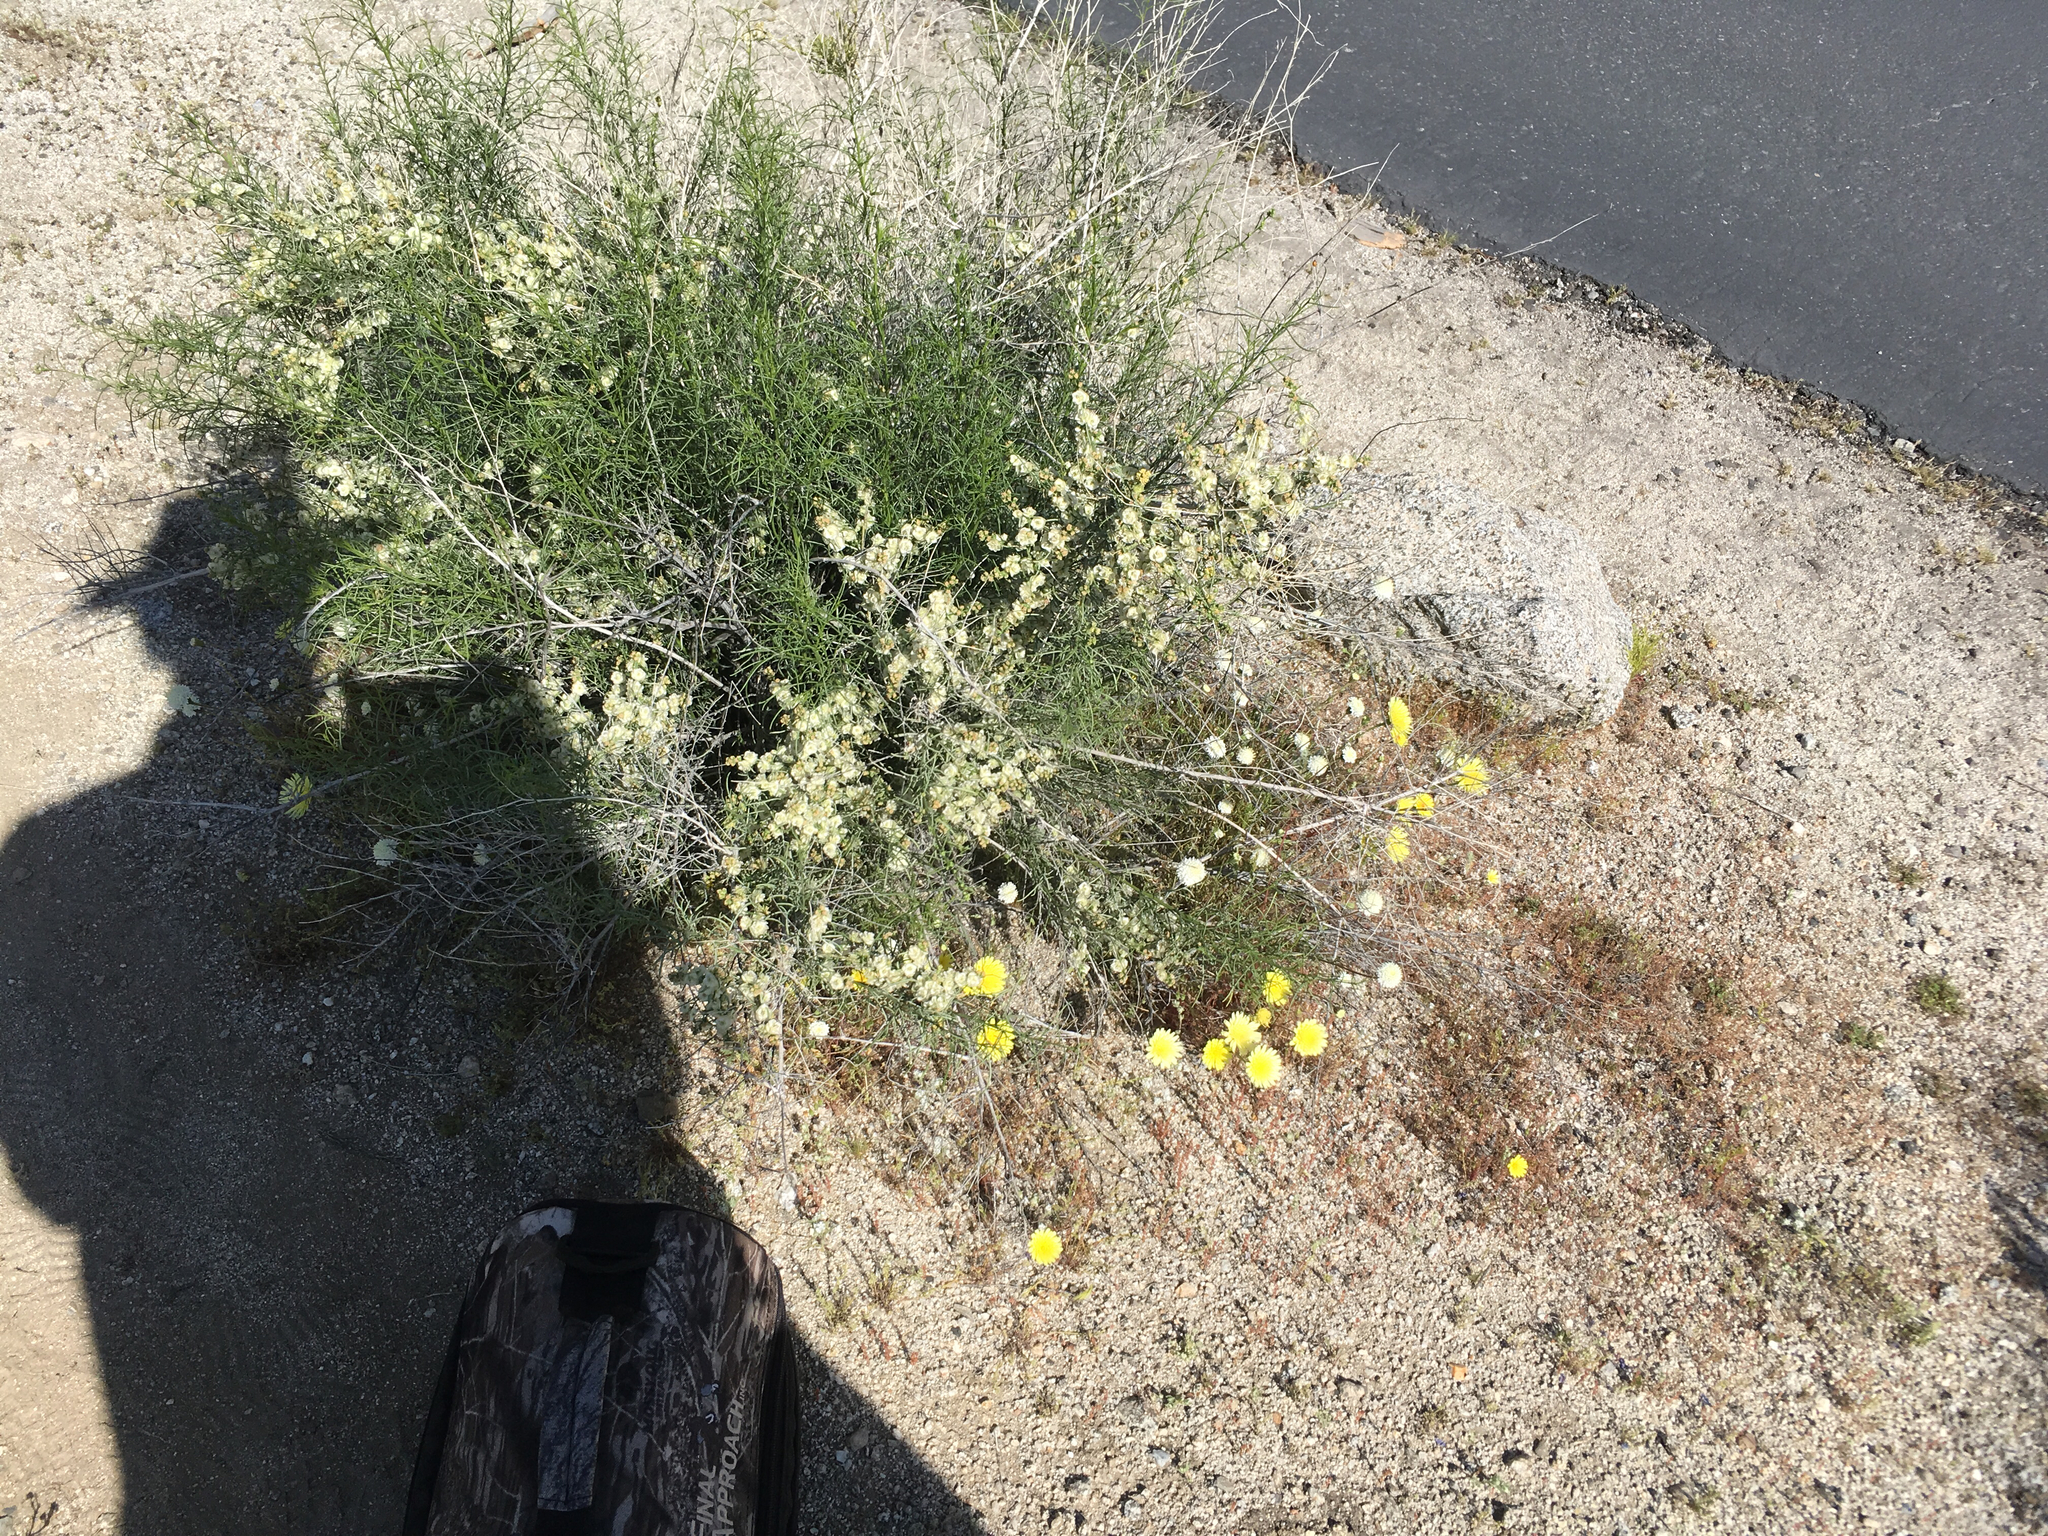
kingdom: Plantae
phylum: Tracheophyta
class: Magnoliopsida
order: Asterales
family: Asteraceae
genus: Ambrosia
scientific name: Ambrosia salsola
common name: Burrobrush
